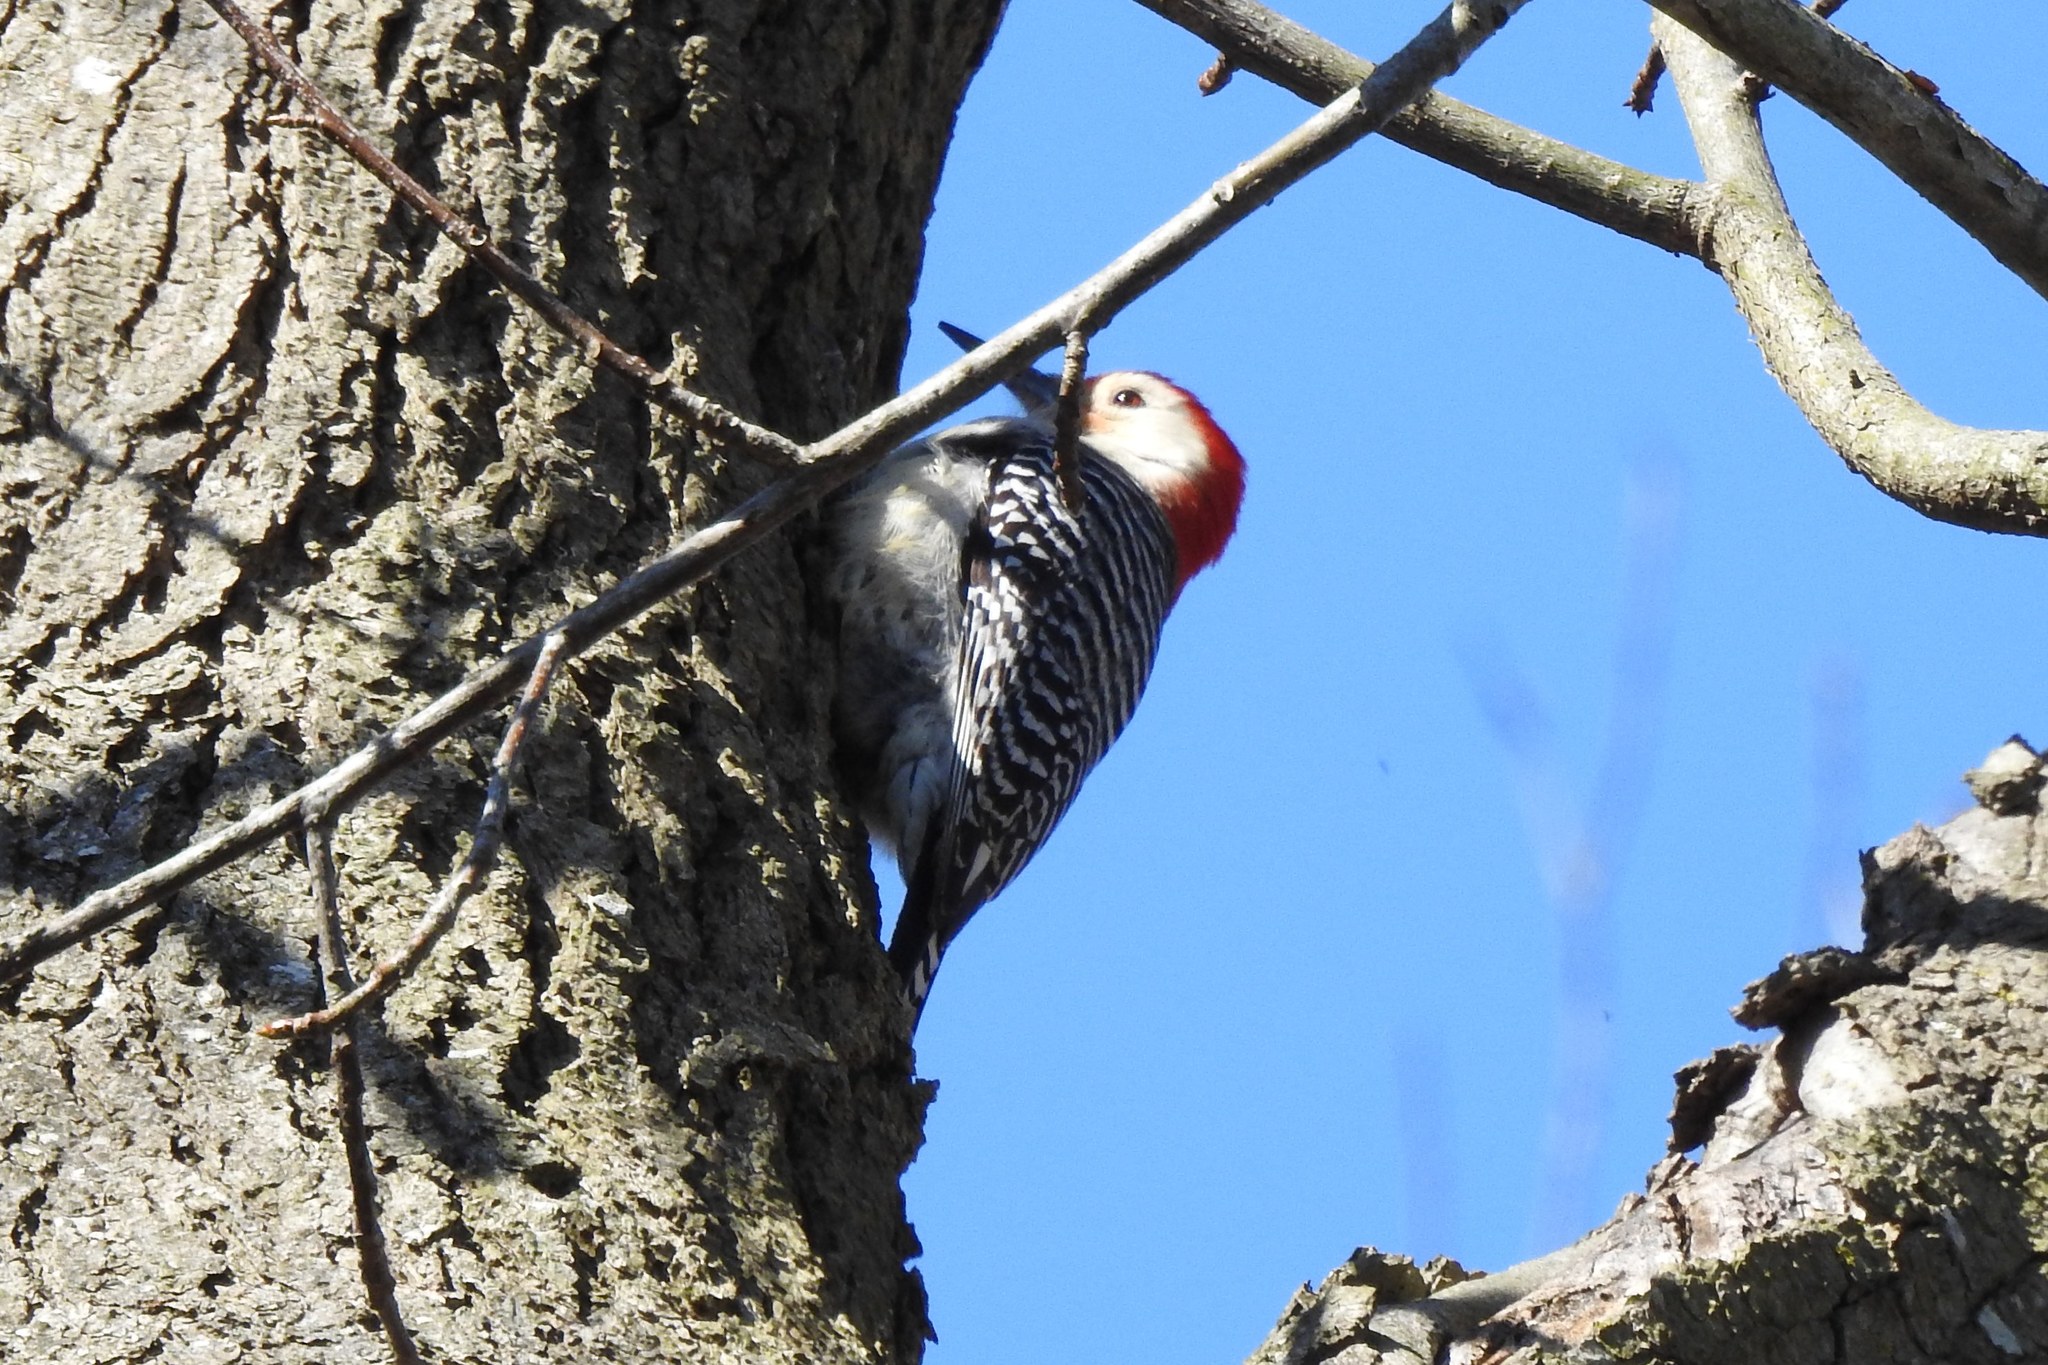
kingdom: Animalia
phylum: Chordata
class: Aves
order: Piciformes
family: Picidae
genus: Melanerpes
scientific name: Melanerpes carolinus
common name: Red-bellied woodpecker
